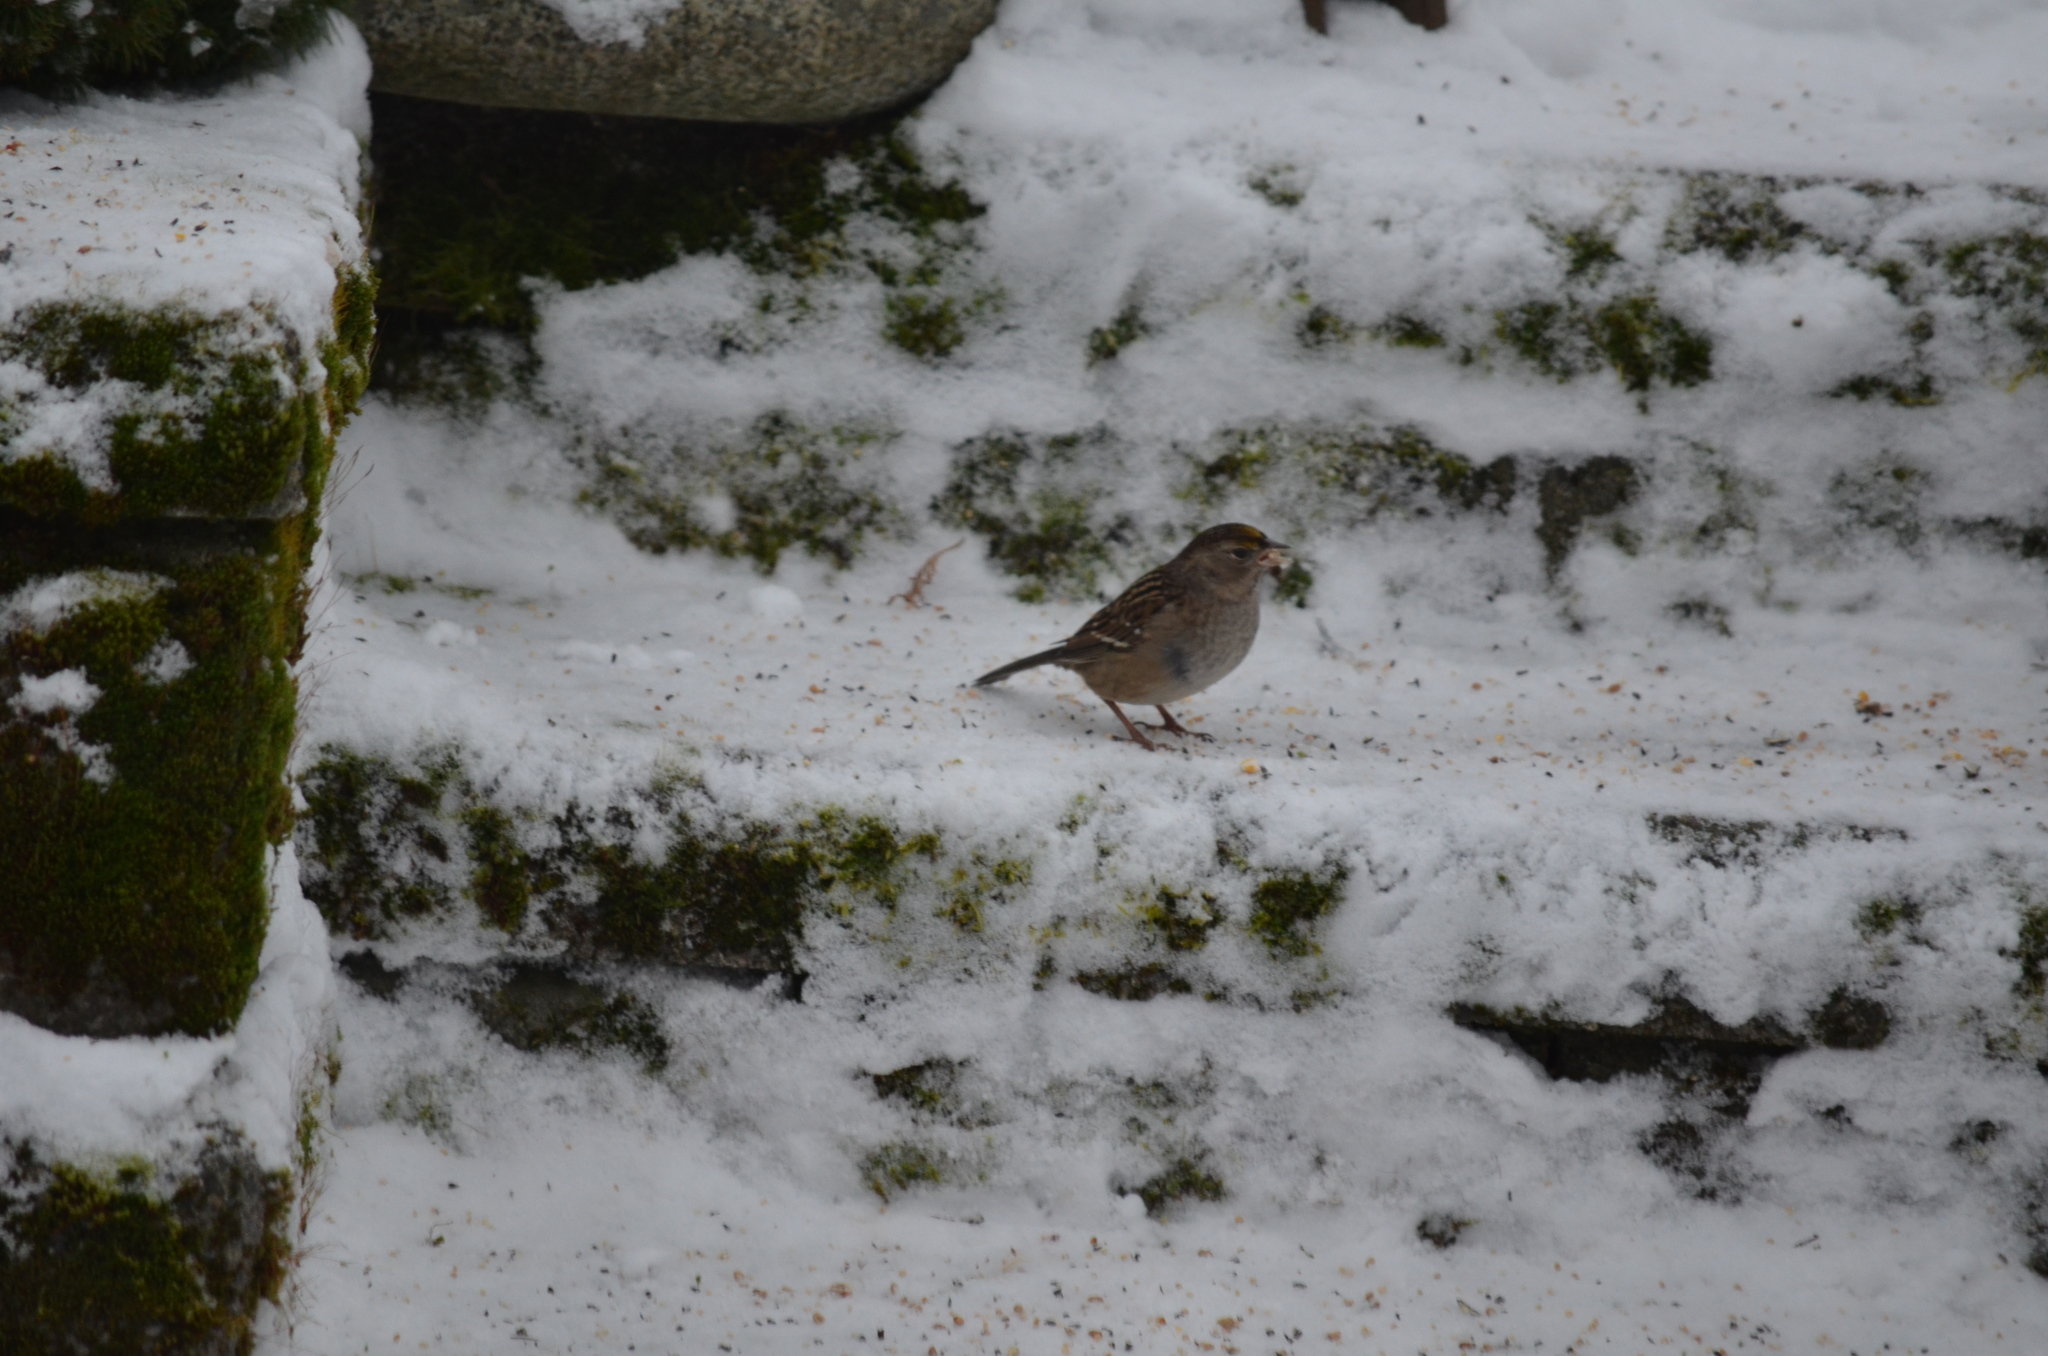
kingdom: Animalia
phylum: Chordata
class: Aves
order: Passeriformes
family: Passerellidae
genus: Zonotrichia
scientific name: Zonotrichia atricapilla
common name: Golden-crowned sparrow
